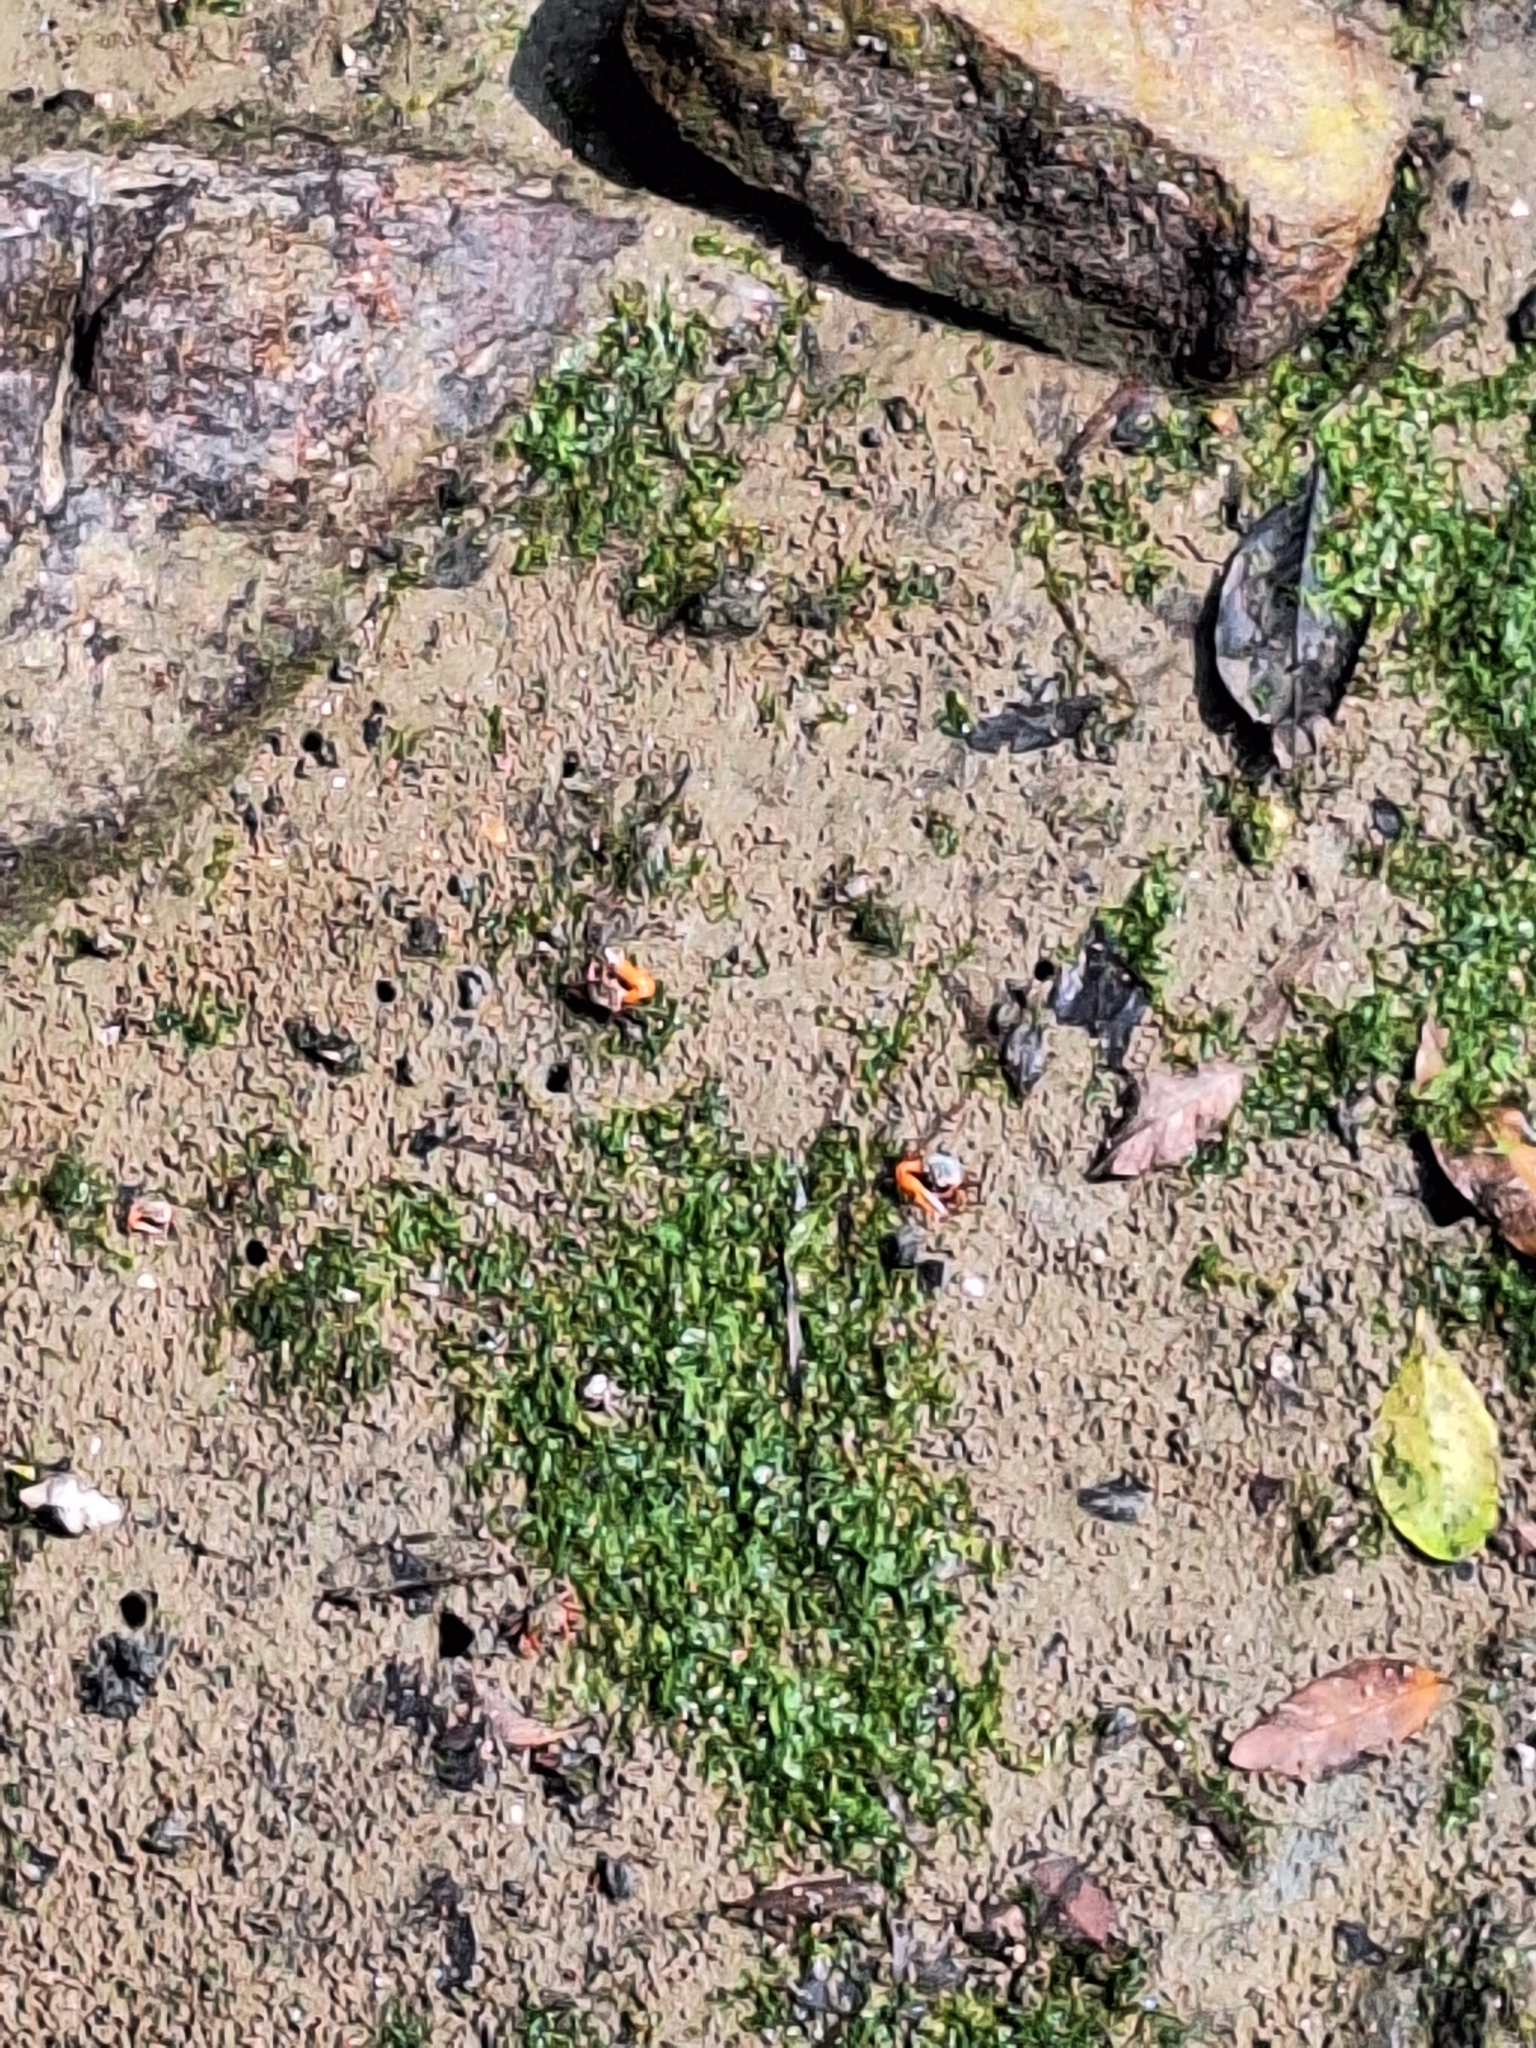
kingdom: Animalia
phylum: Arthropoda
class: Malacostraca
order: Decapoda
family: Ocypodidae
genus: Gelasimus
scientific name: Gelasimus vocans
